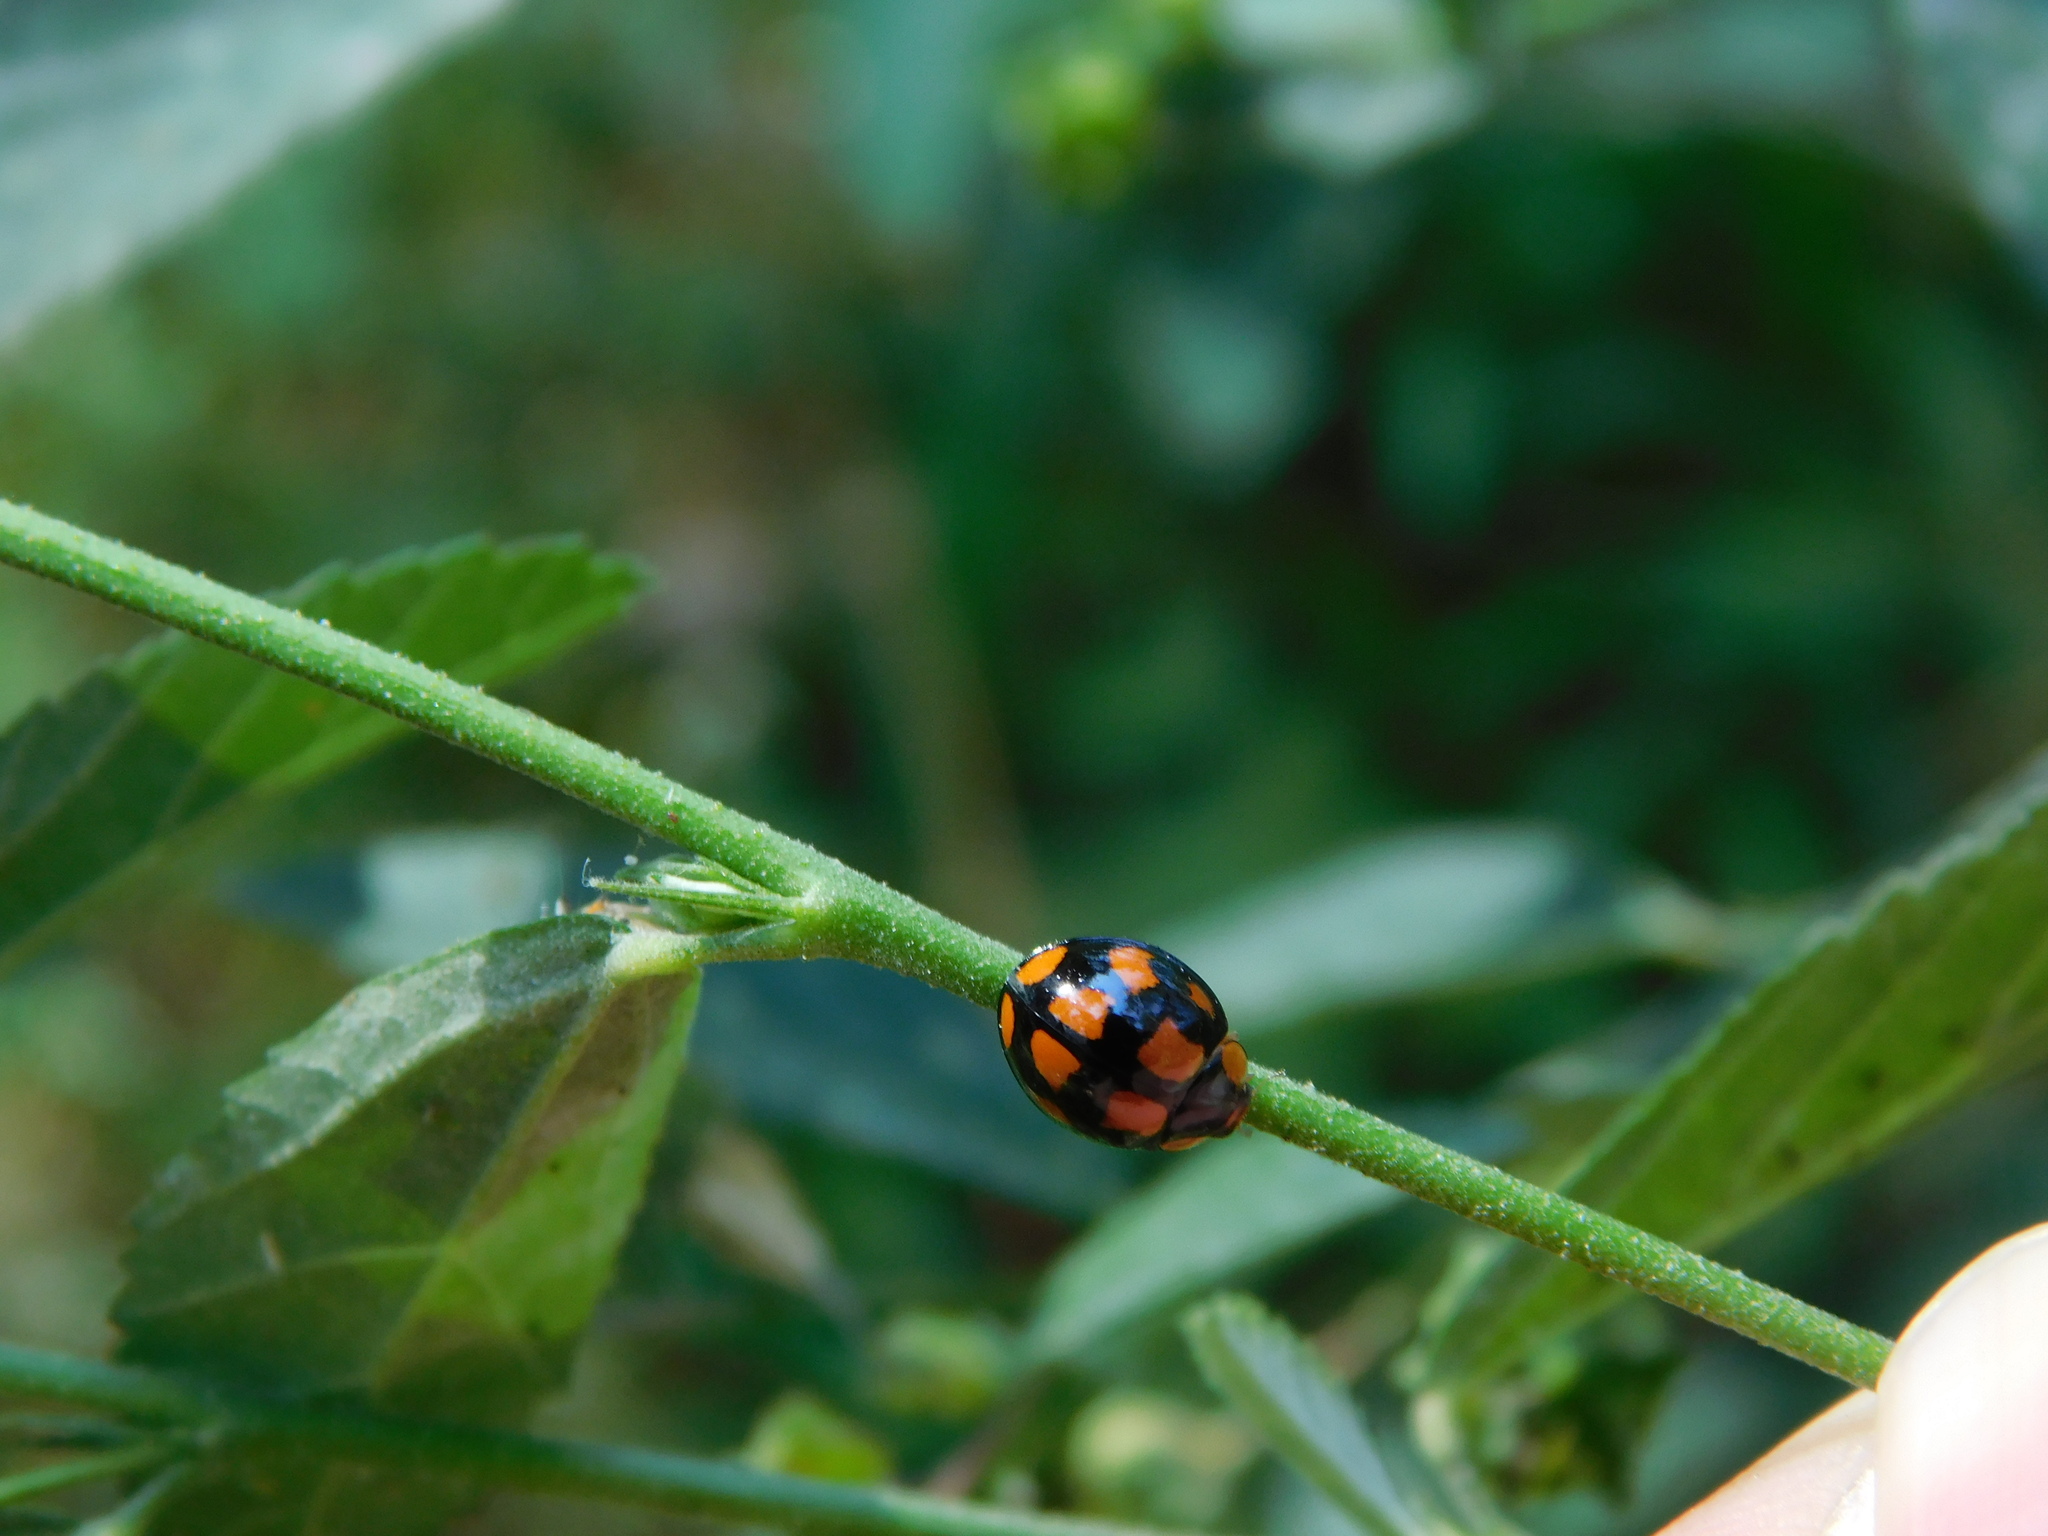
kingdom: Animalia
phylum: Arthropoda
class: Insecta
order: Coleoptera
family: Coccinellidae
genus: Coelophora
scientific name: Coelophora inaequalis
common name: Common australian lady beetle
